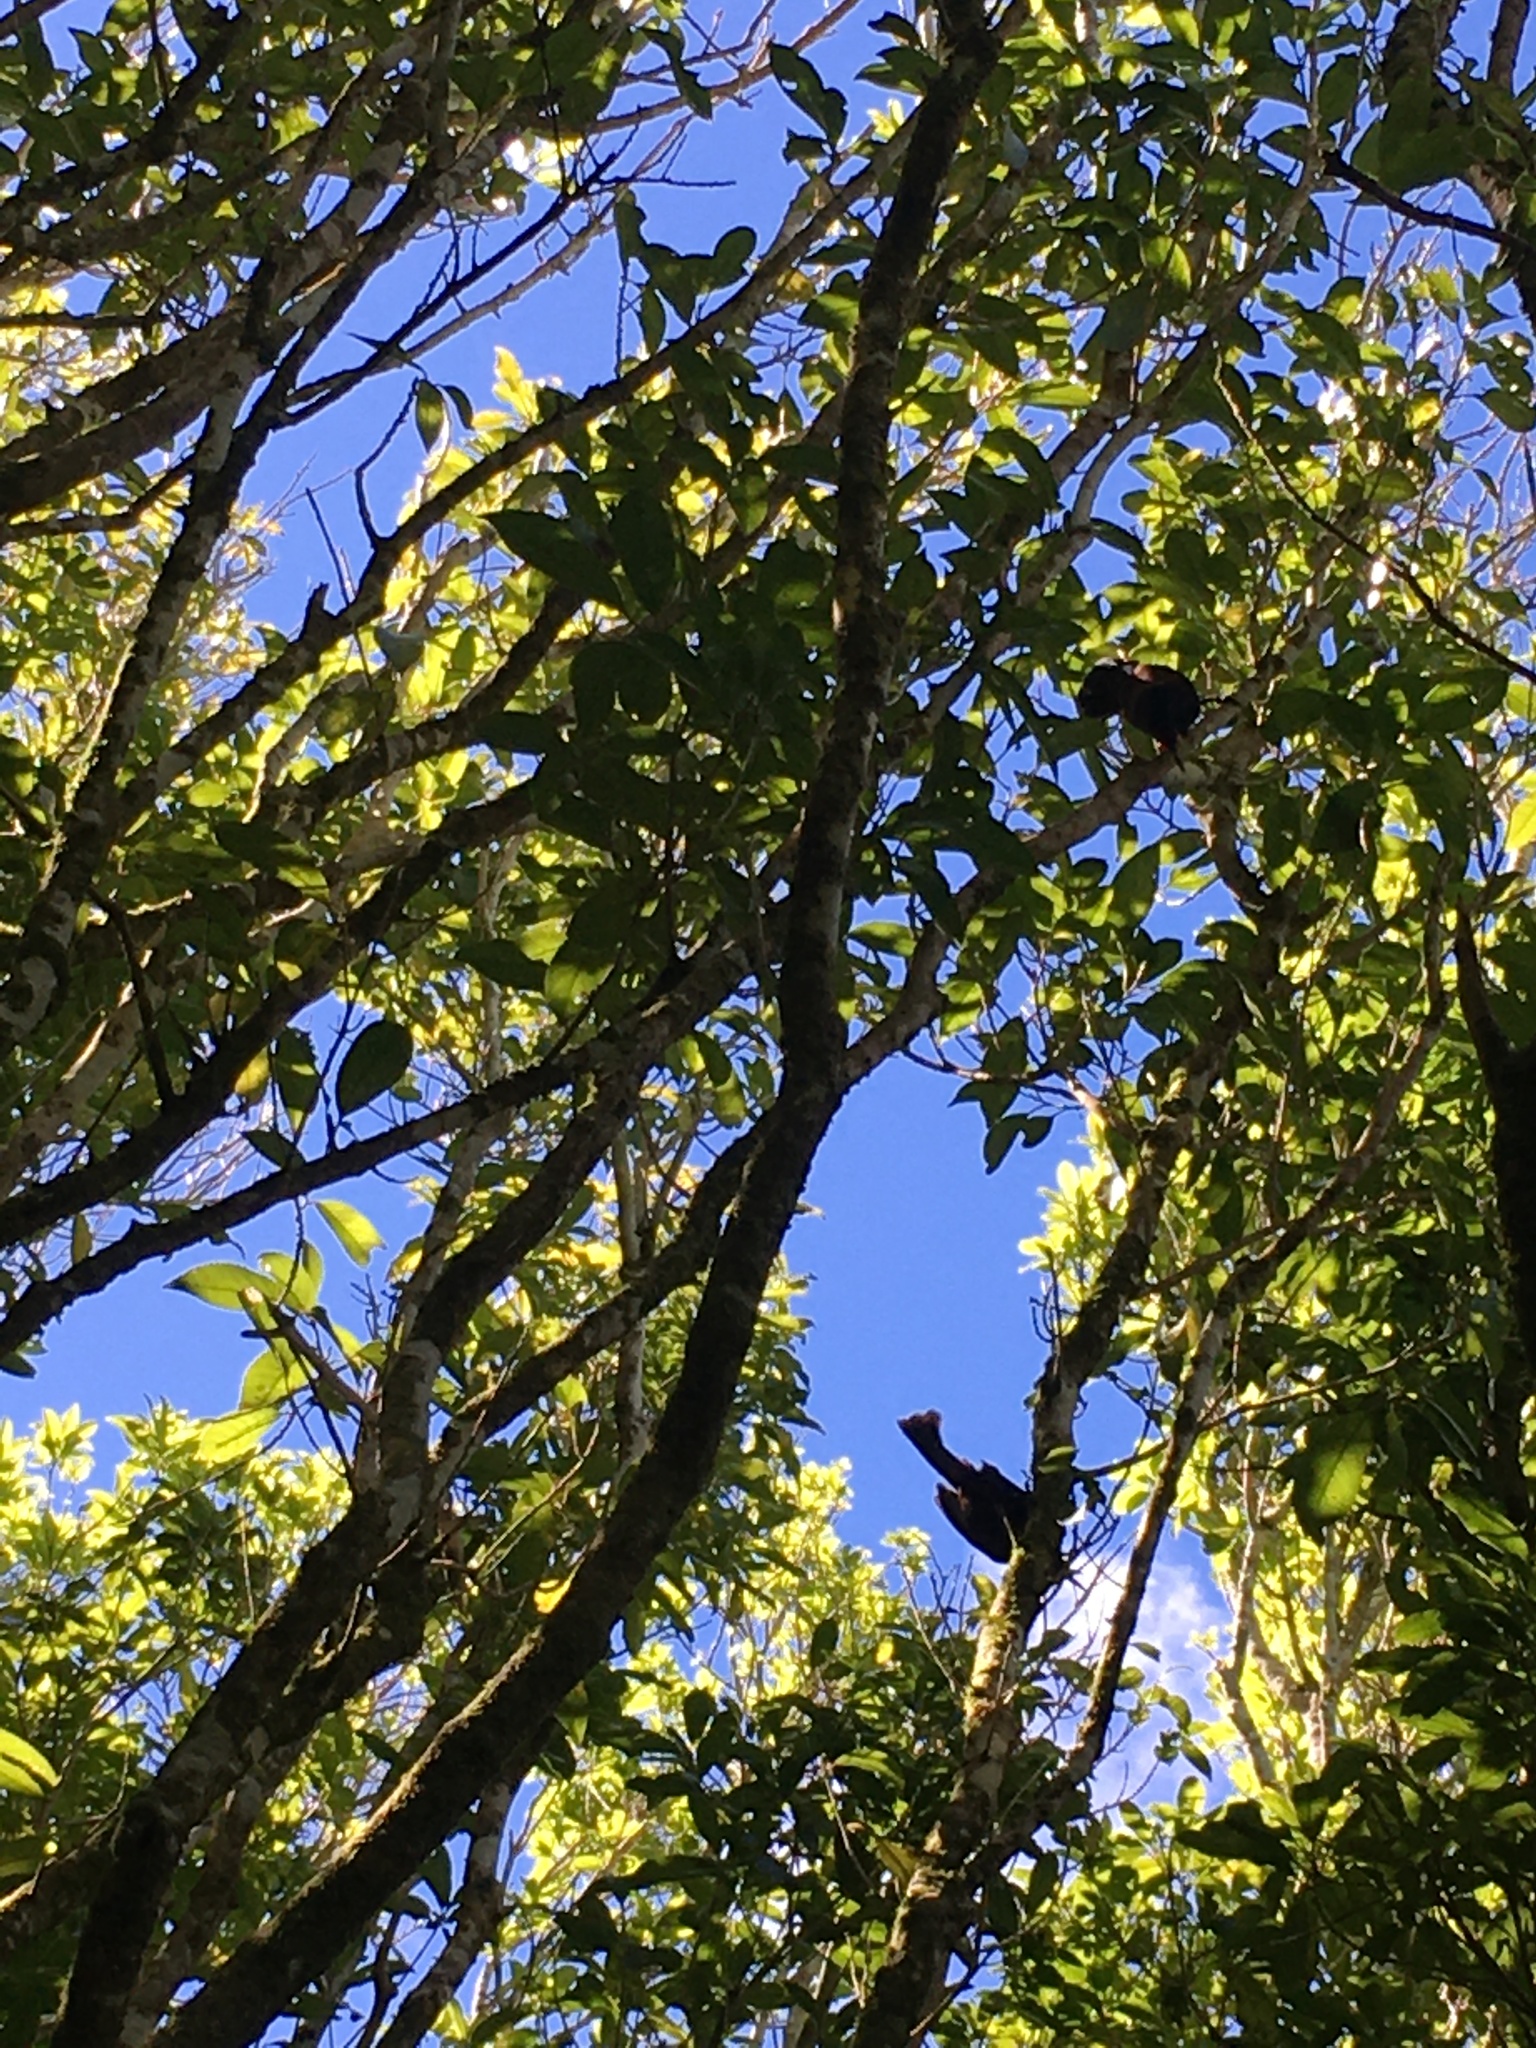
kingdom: Animalia
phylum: Chordata
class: Aves
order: Passeriformes
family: Callaeatidae
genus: Philesturnus
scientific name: Philesturnus carunculatus
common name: South island saddleback
